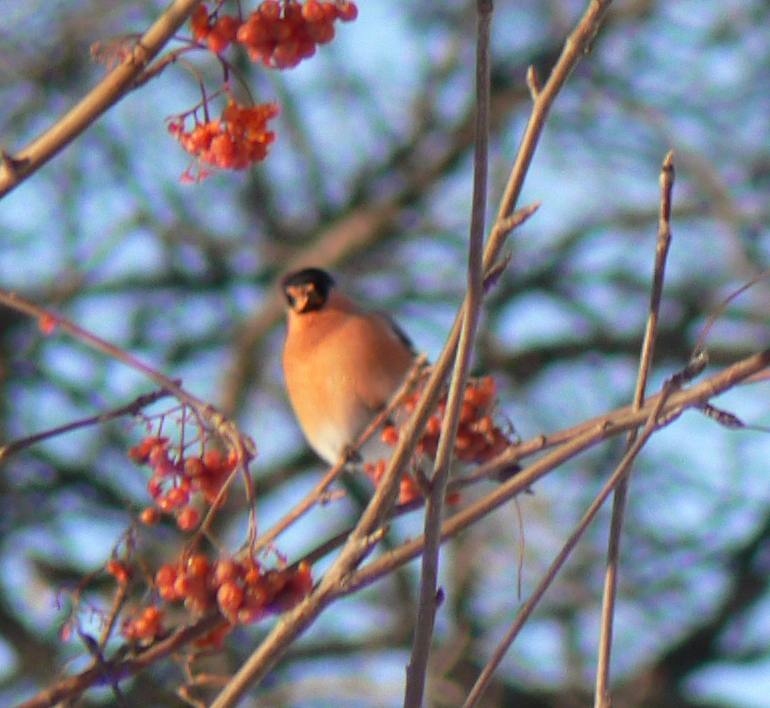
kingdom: Animalia
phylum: Chordata
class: Aves
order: Passeriformes
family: Fringillidae
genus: Pyrrhula
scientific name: Pyrrhula pyrrhula
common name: Eurasian bullfinch
